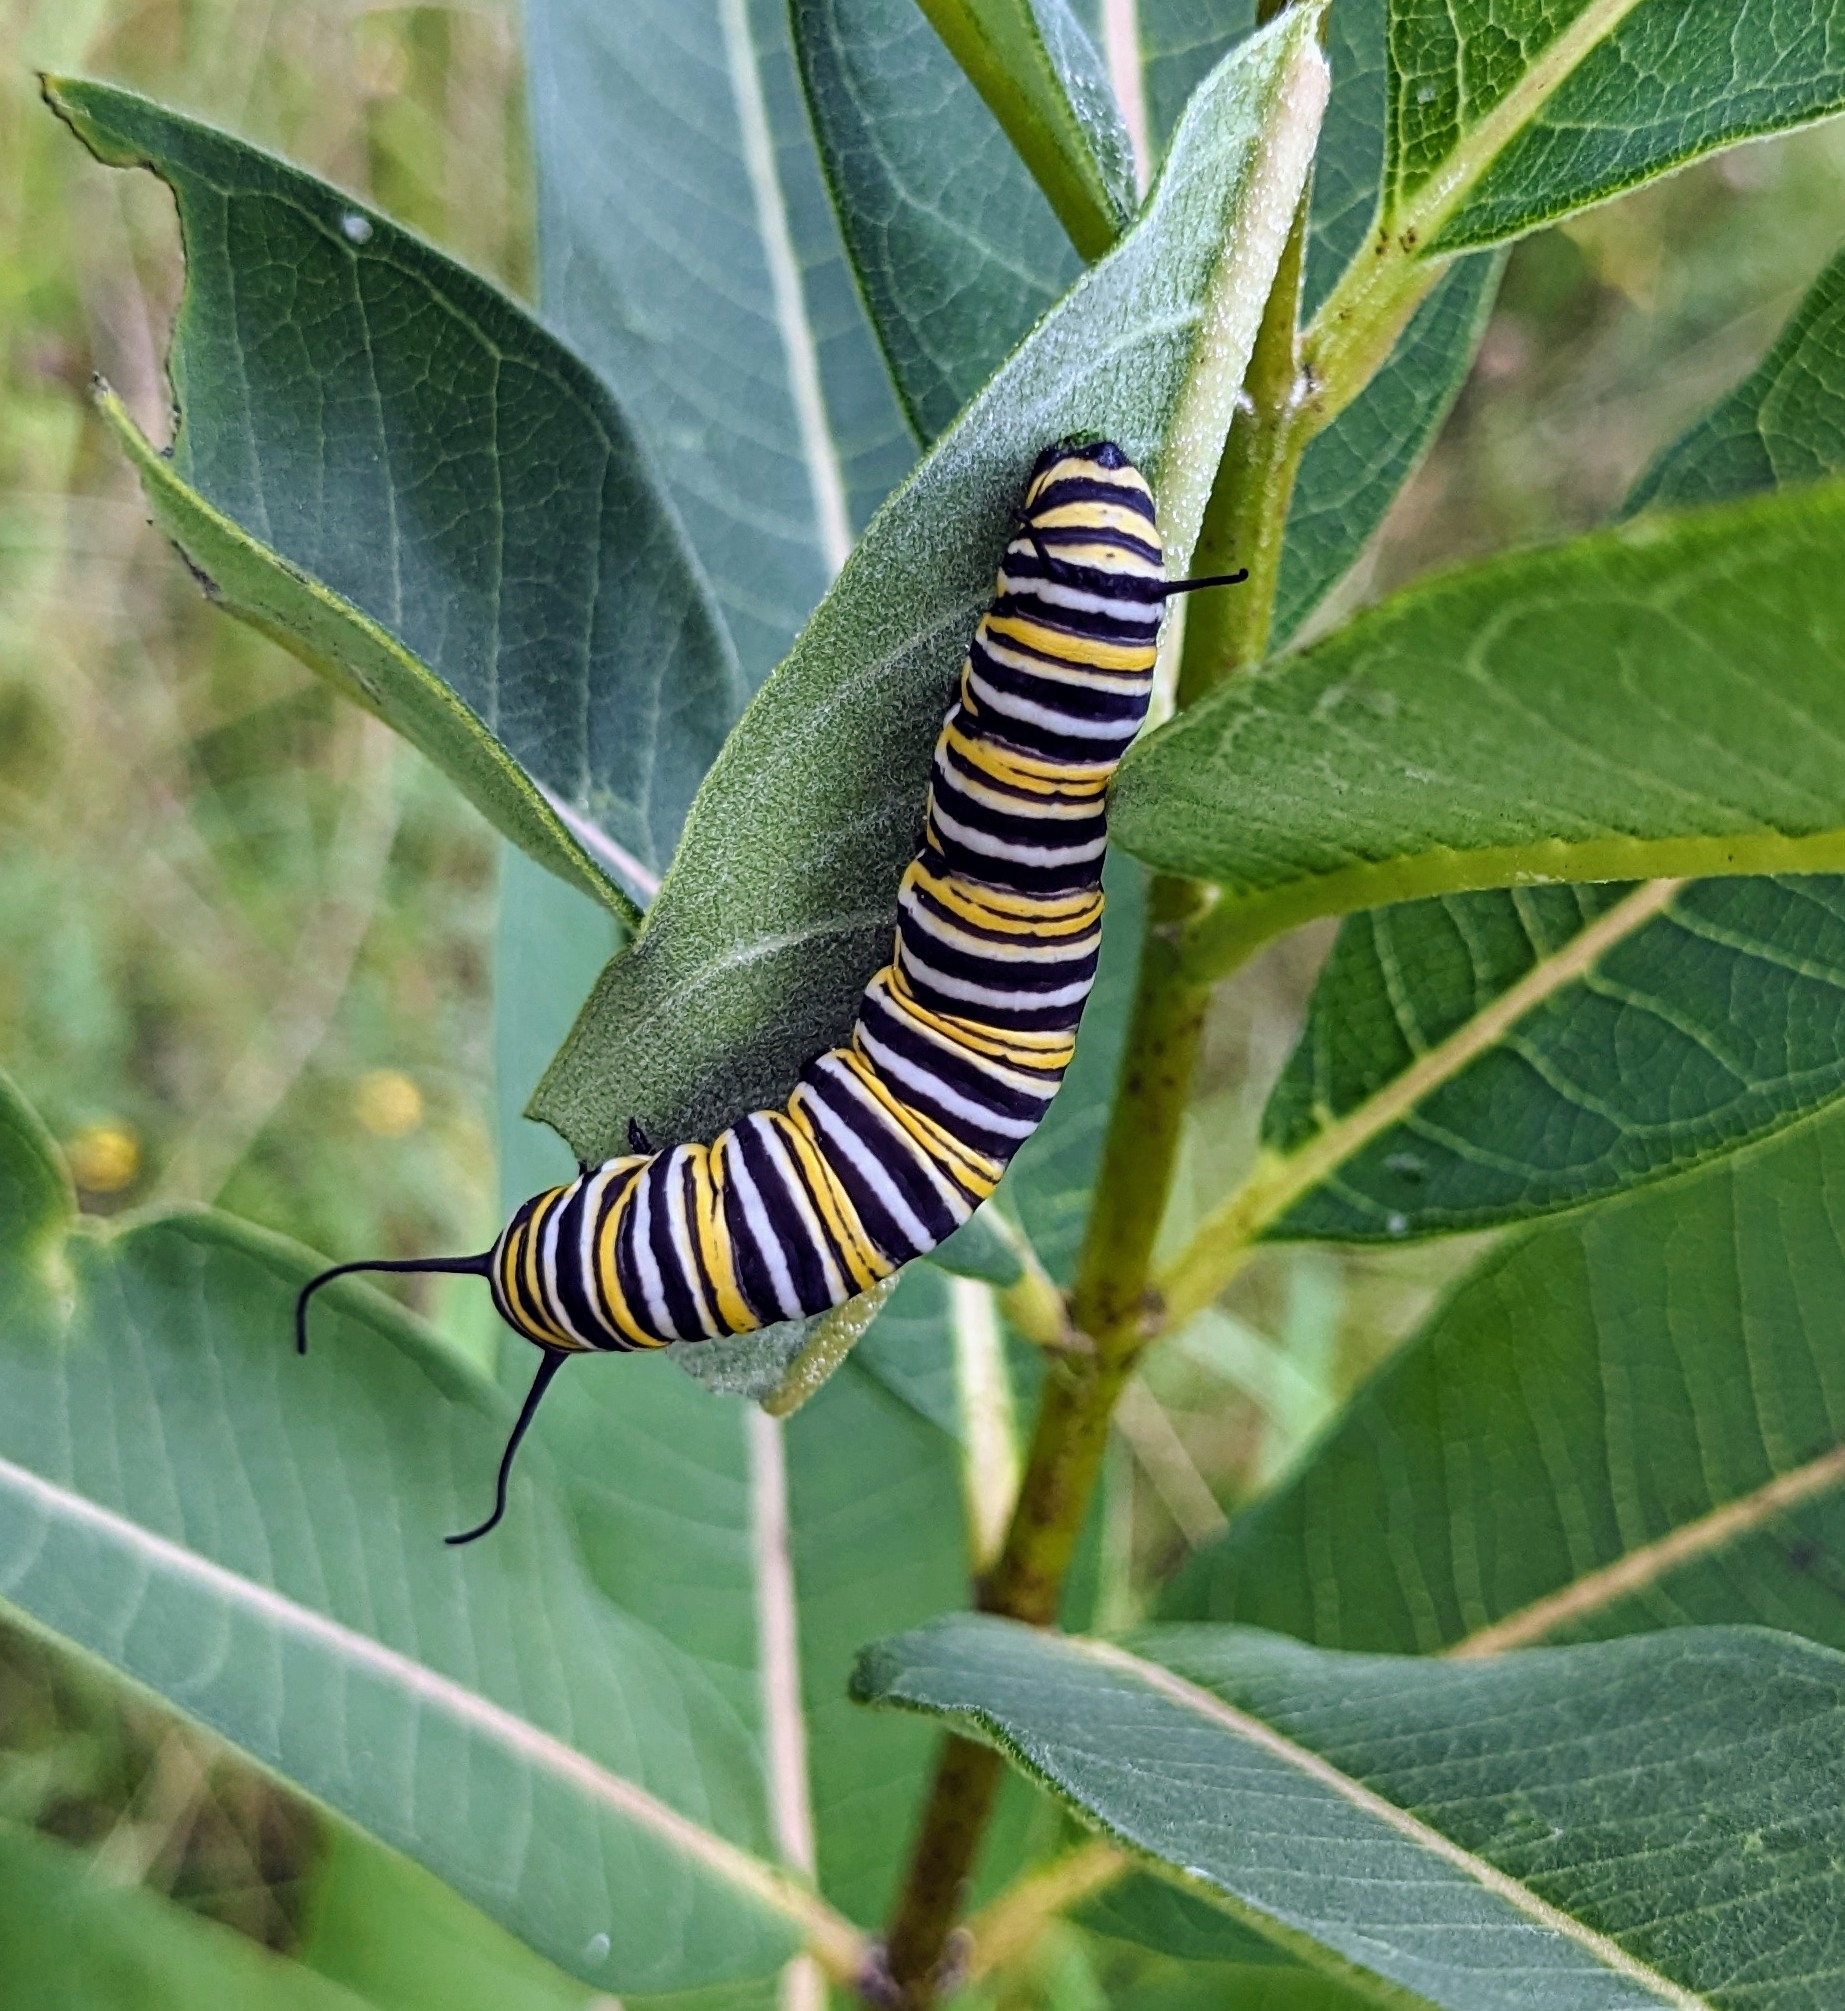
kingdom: Animalia
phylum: Arthropoda
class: Insecta
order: Lepidoptera
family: Nymphalidae
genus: Danaus
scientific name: Danaus plexippus
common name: Monarch
